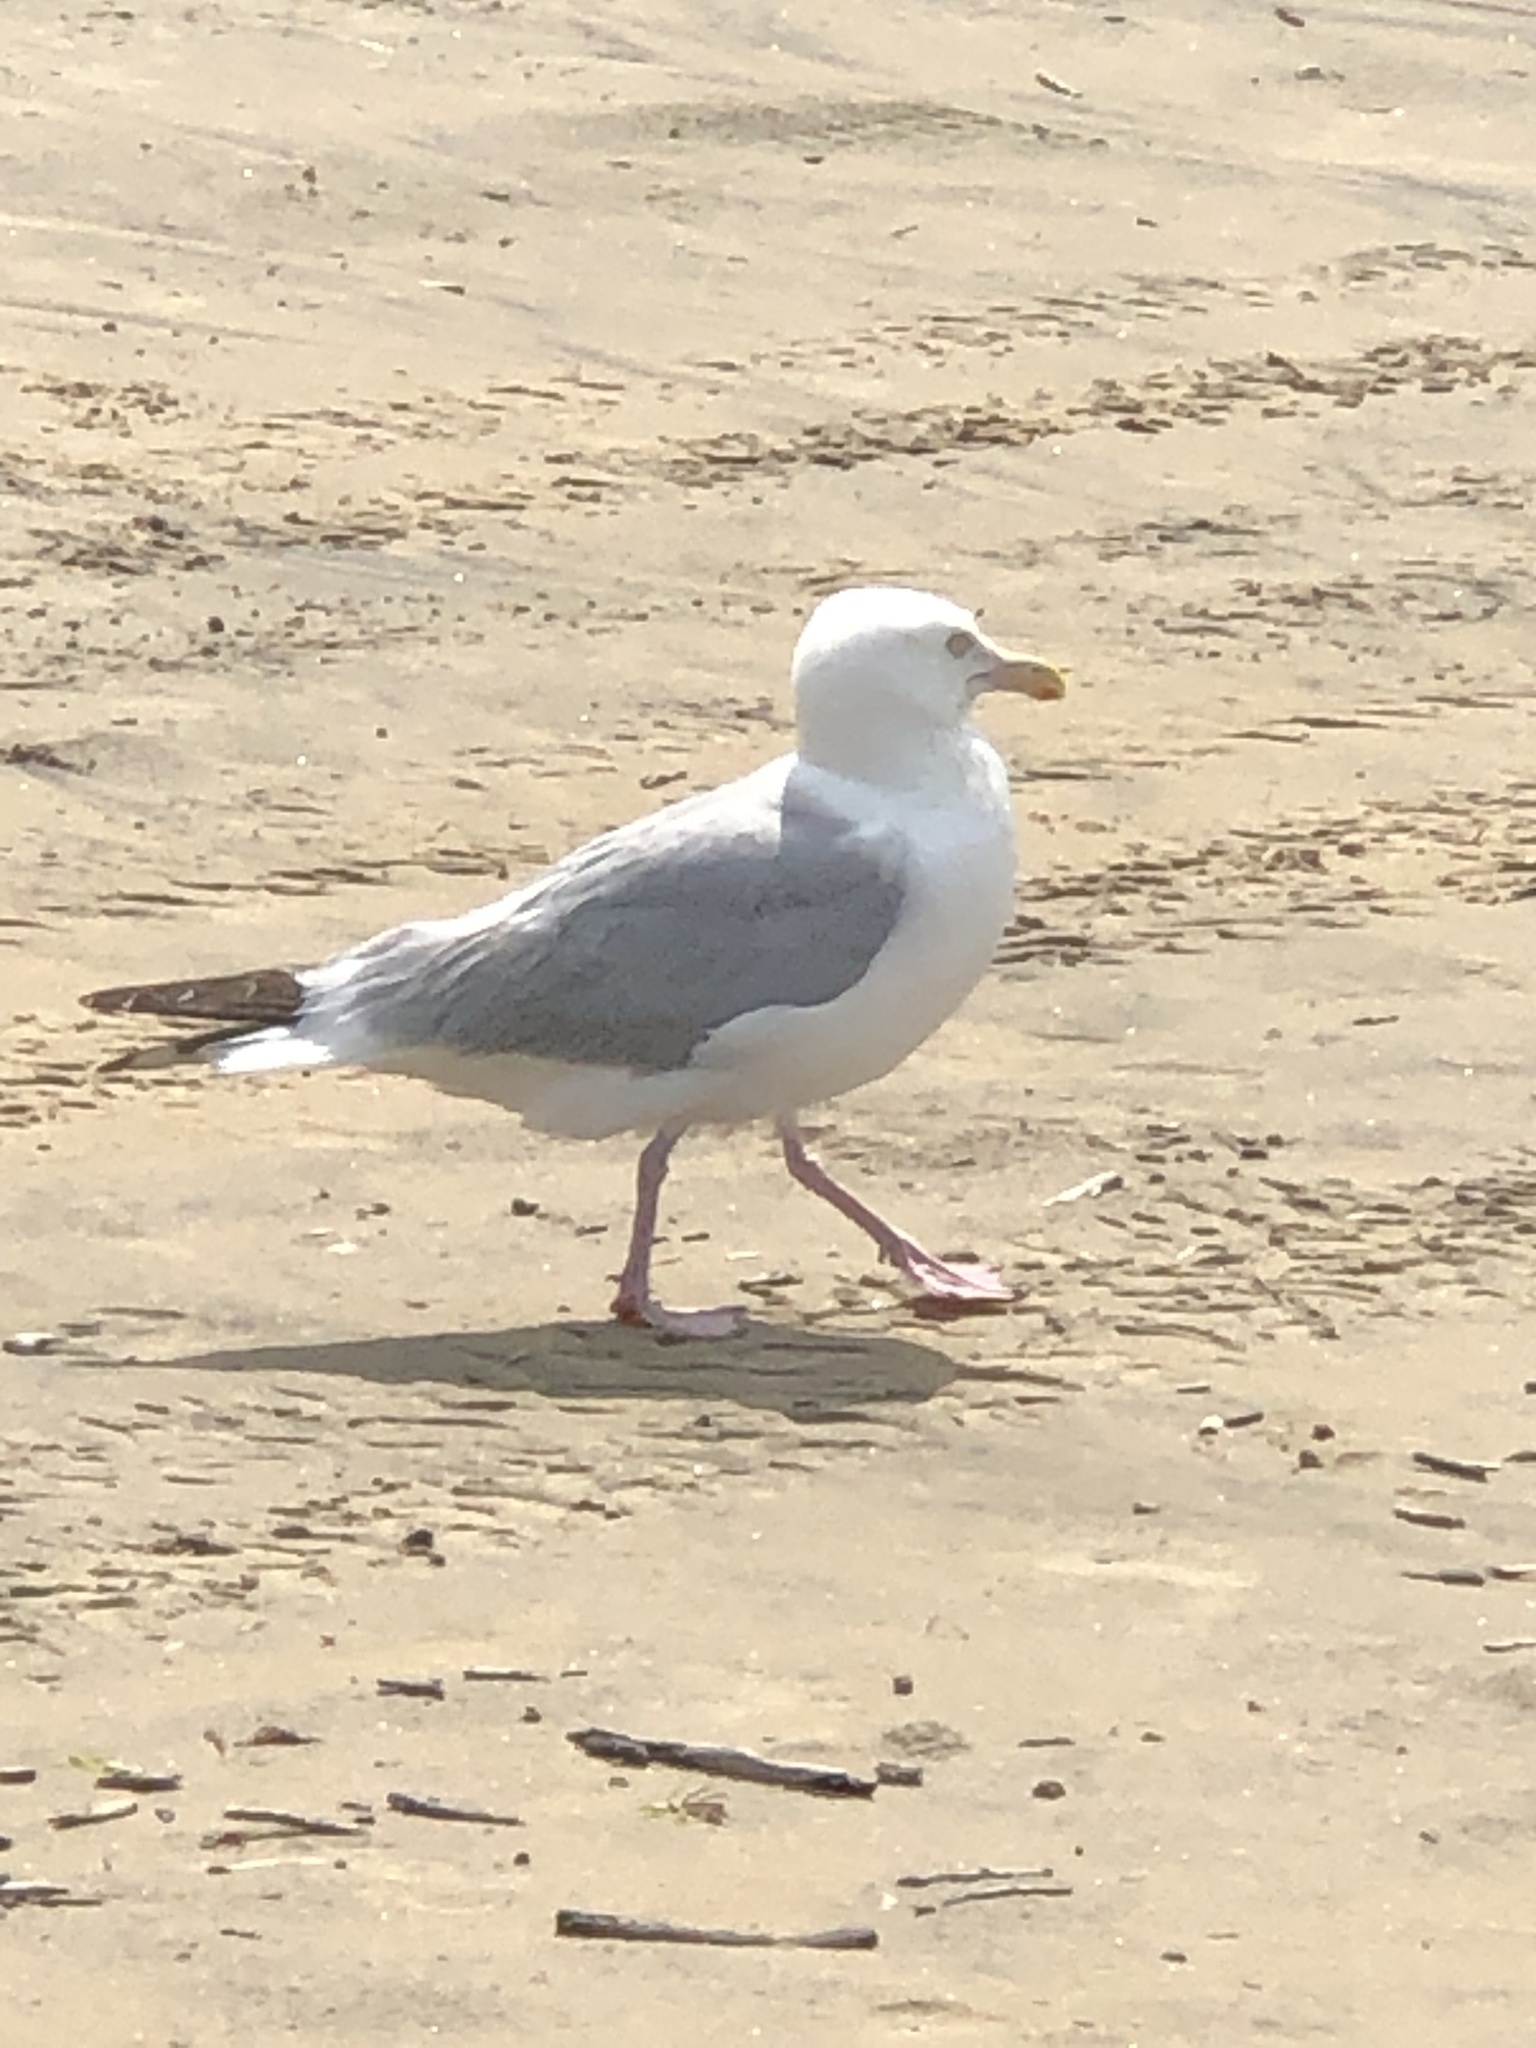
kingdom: Animalia
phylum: Chordata
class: Aves
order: Charadriiformes
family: Laridae
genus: Larus
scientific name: Larus argentatus
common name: Herring gull
